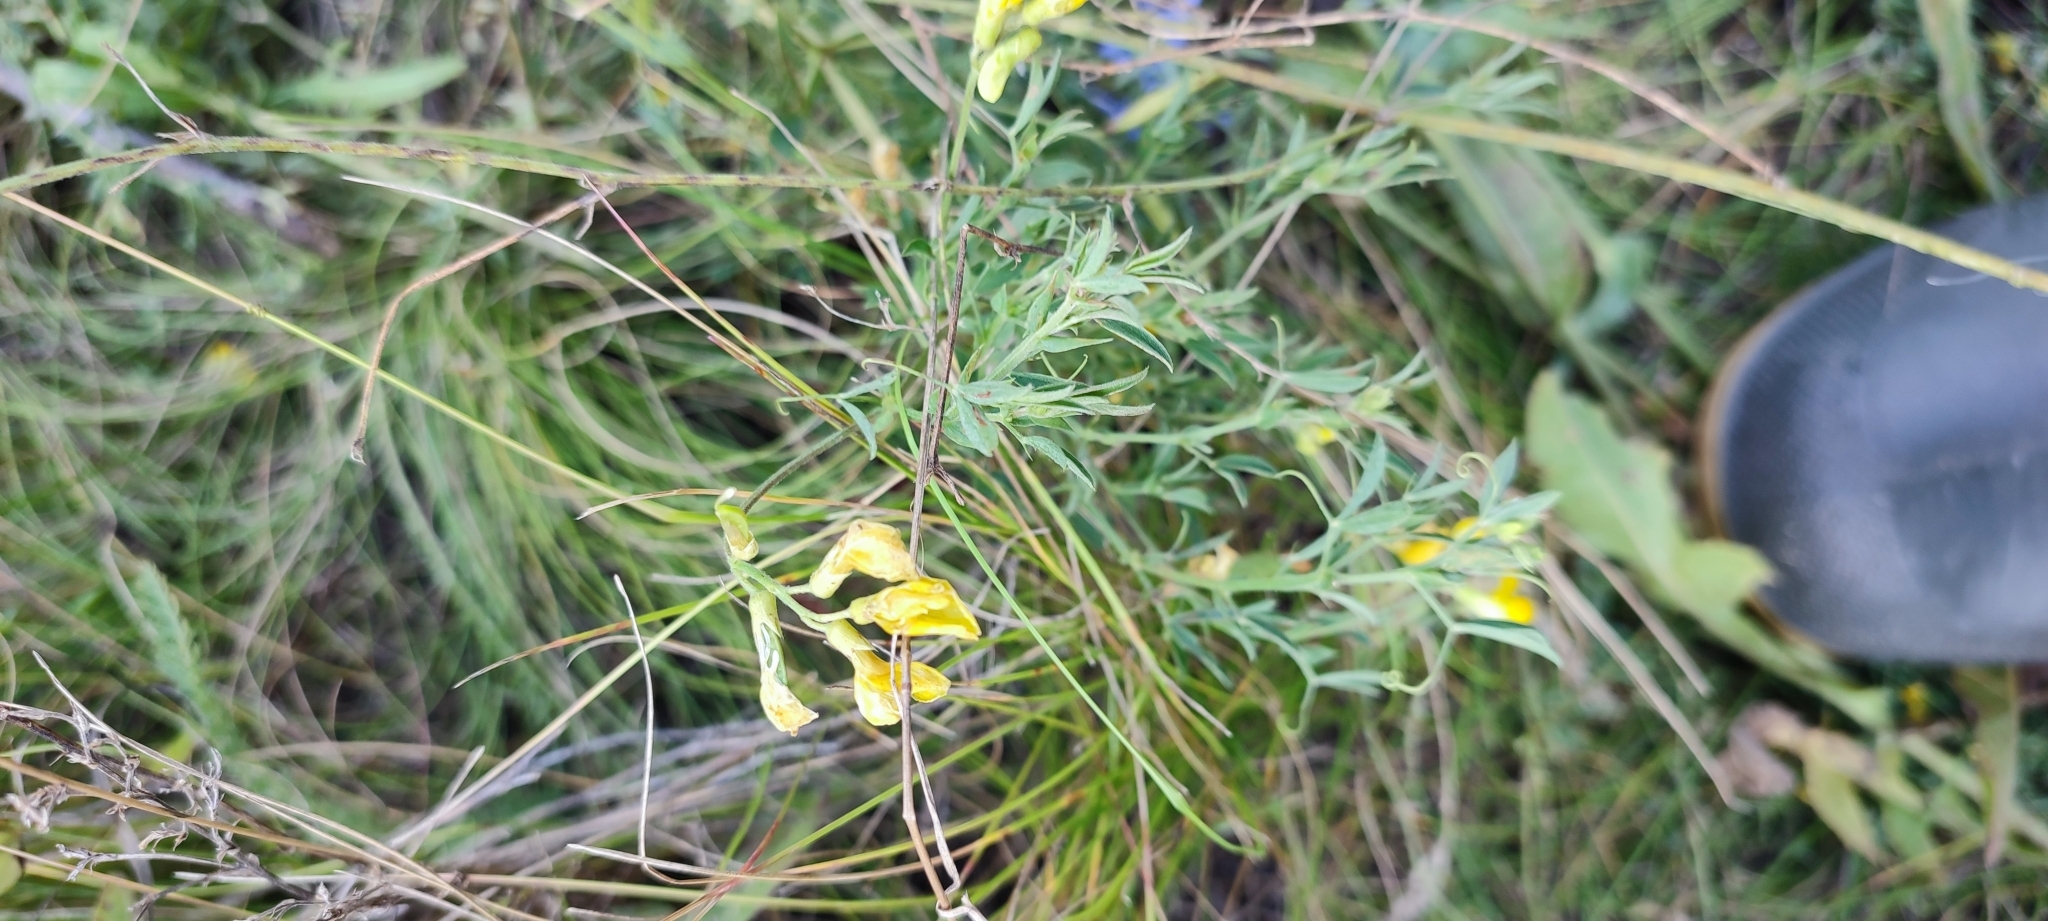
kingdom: Plantae
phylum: Tracheophyta
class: Magnoliopsida
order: Fabales
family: Fabaceae
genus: Lathyrus
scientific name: Lathyrus pratensis
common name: Meadow vetchling
